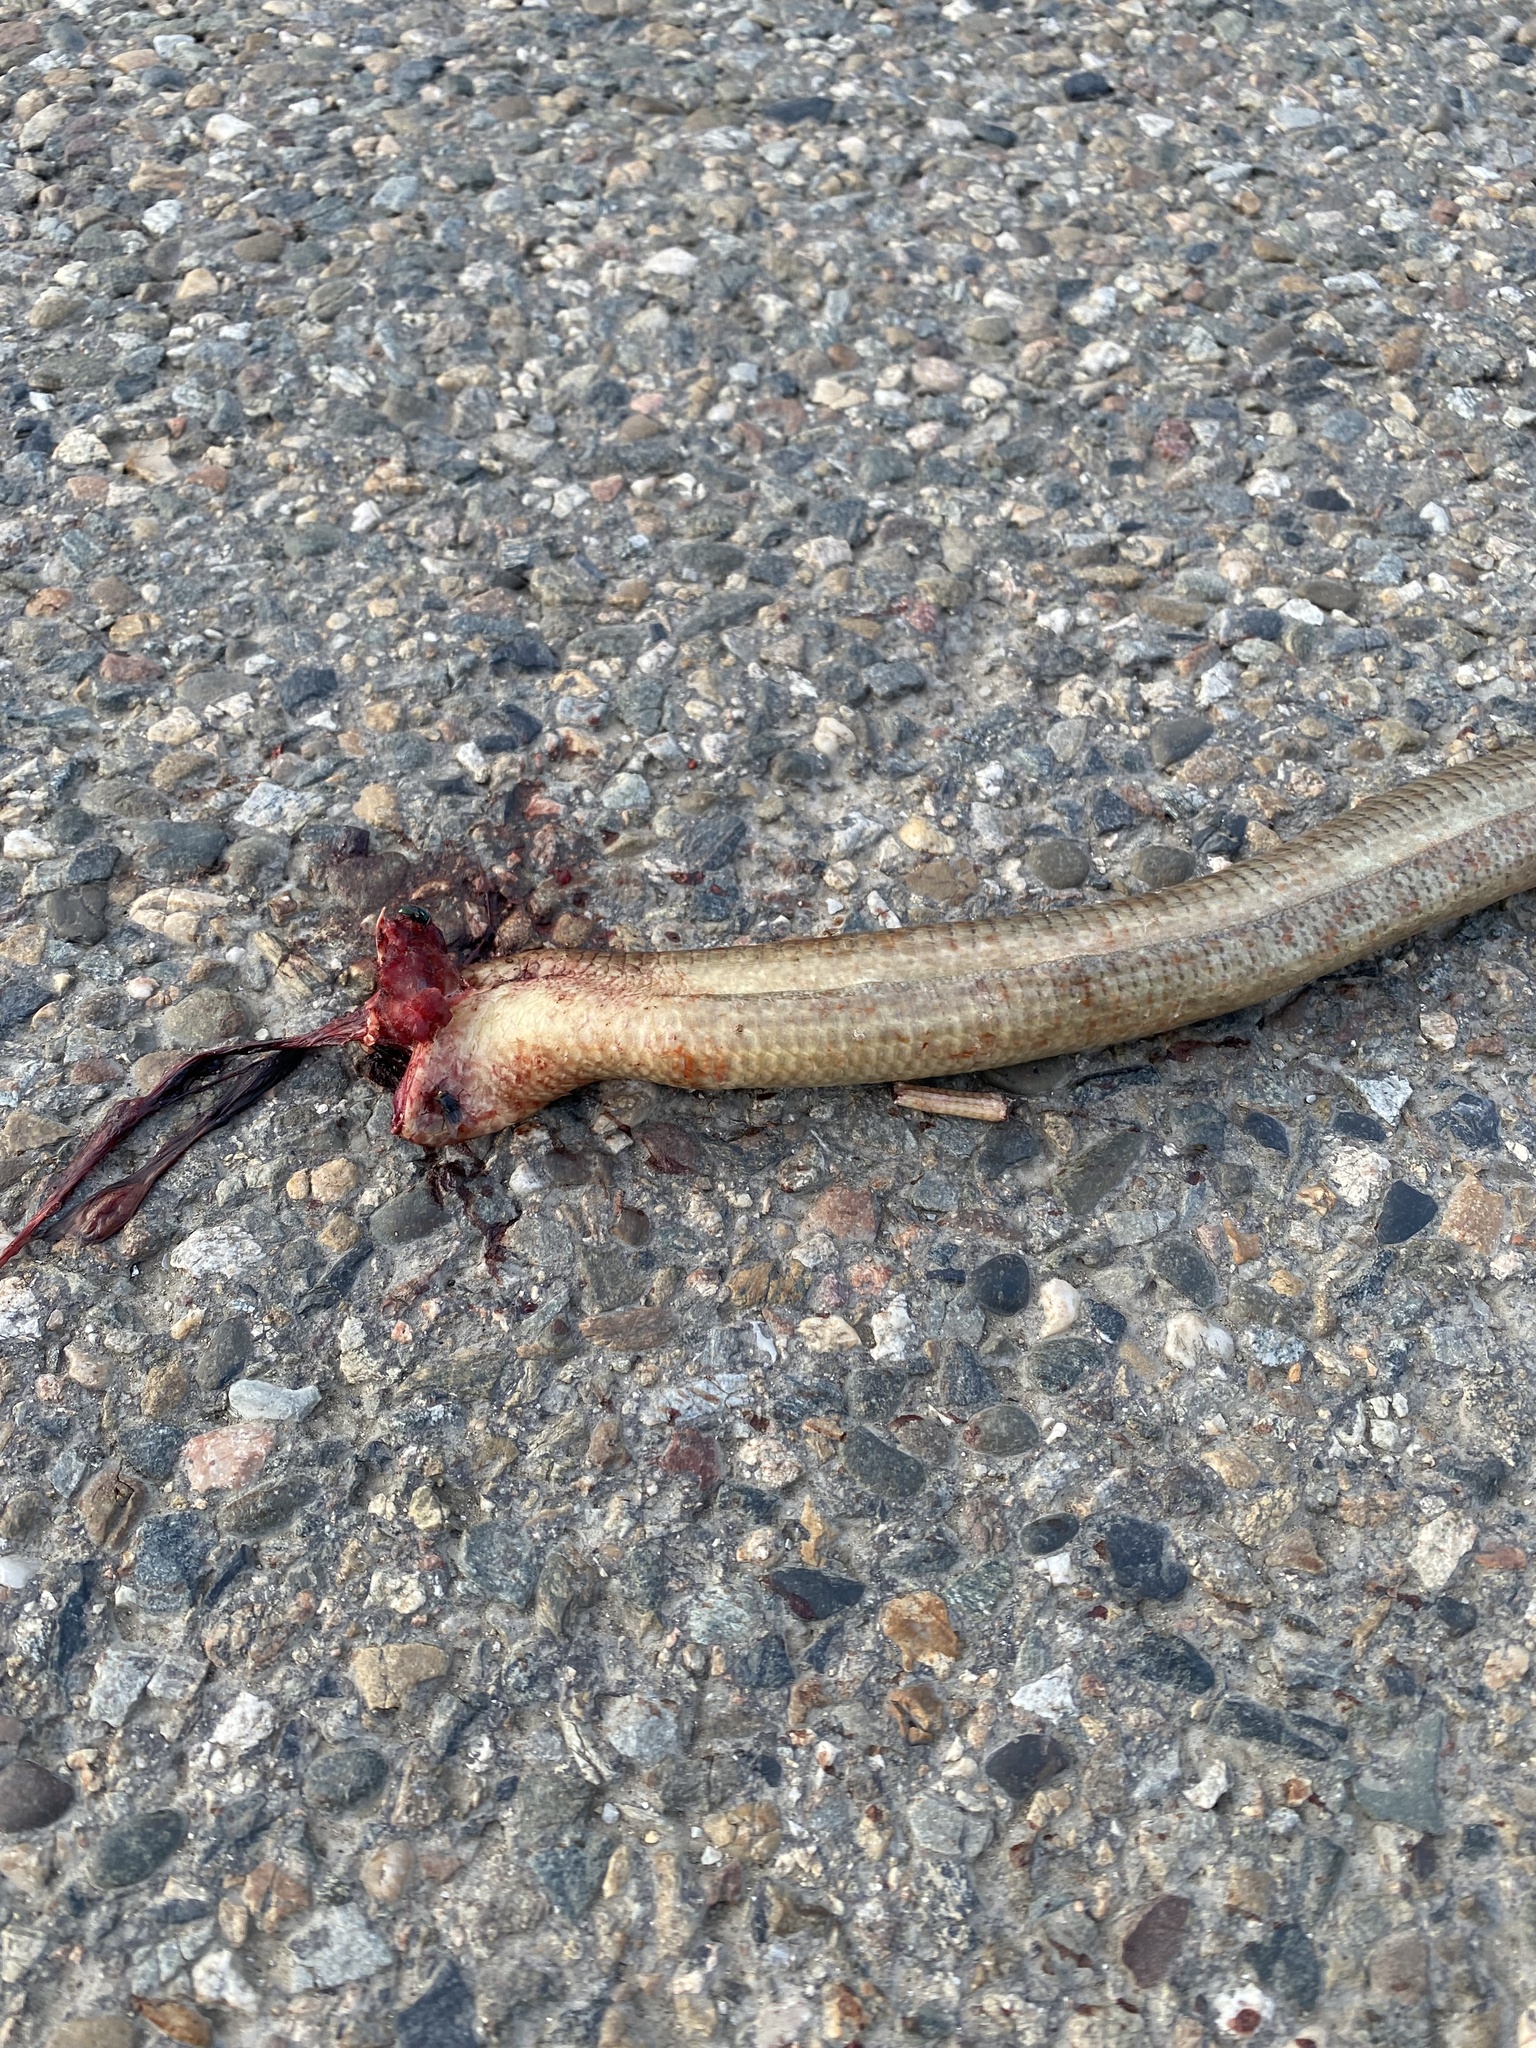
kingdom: Animalia
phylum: Chordata
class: Squamata
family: Anguidae
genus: Pseudopus
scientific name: Pseudopus apodus
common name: European glass lizard
